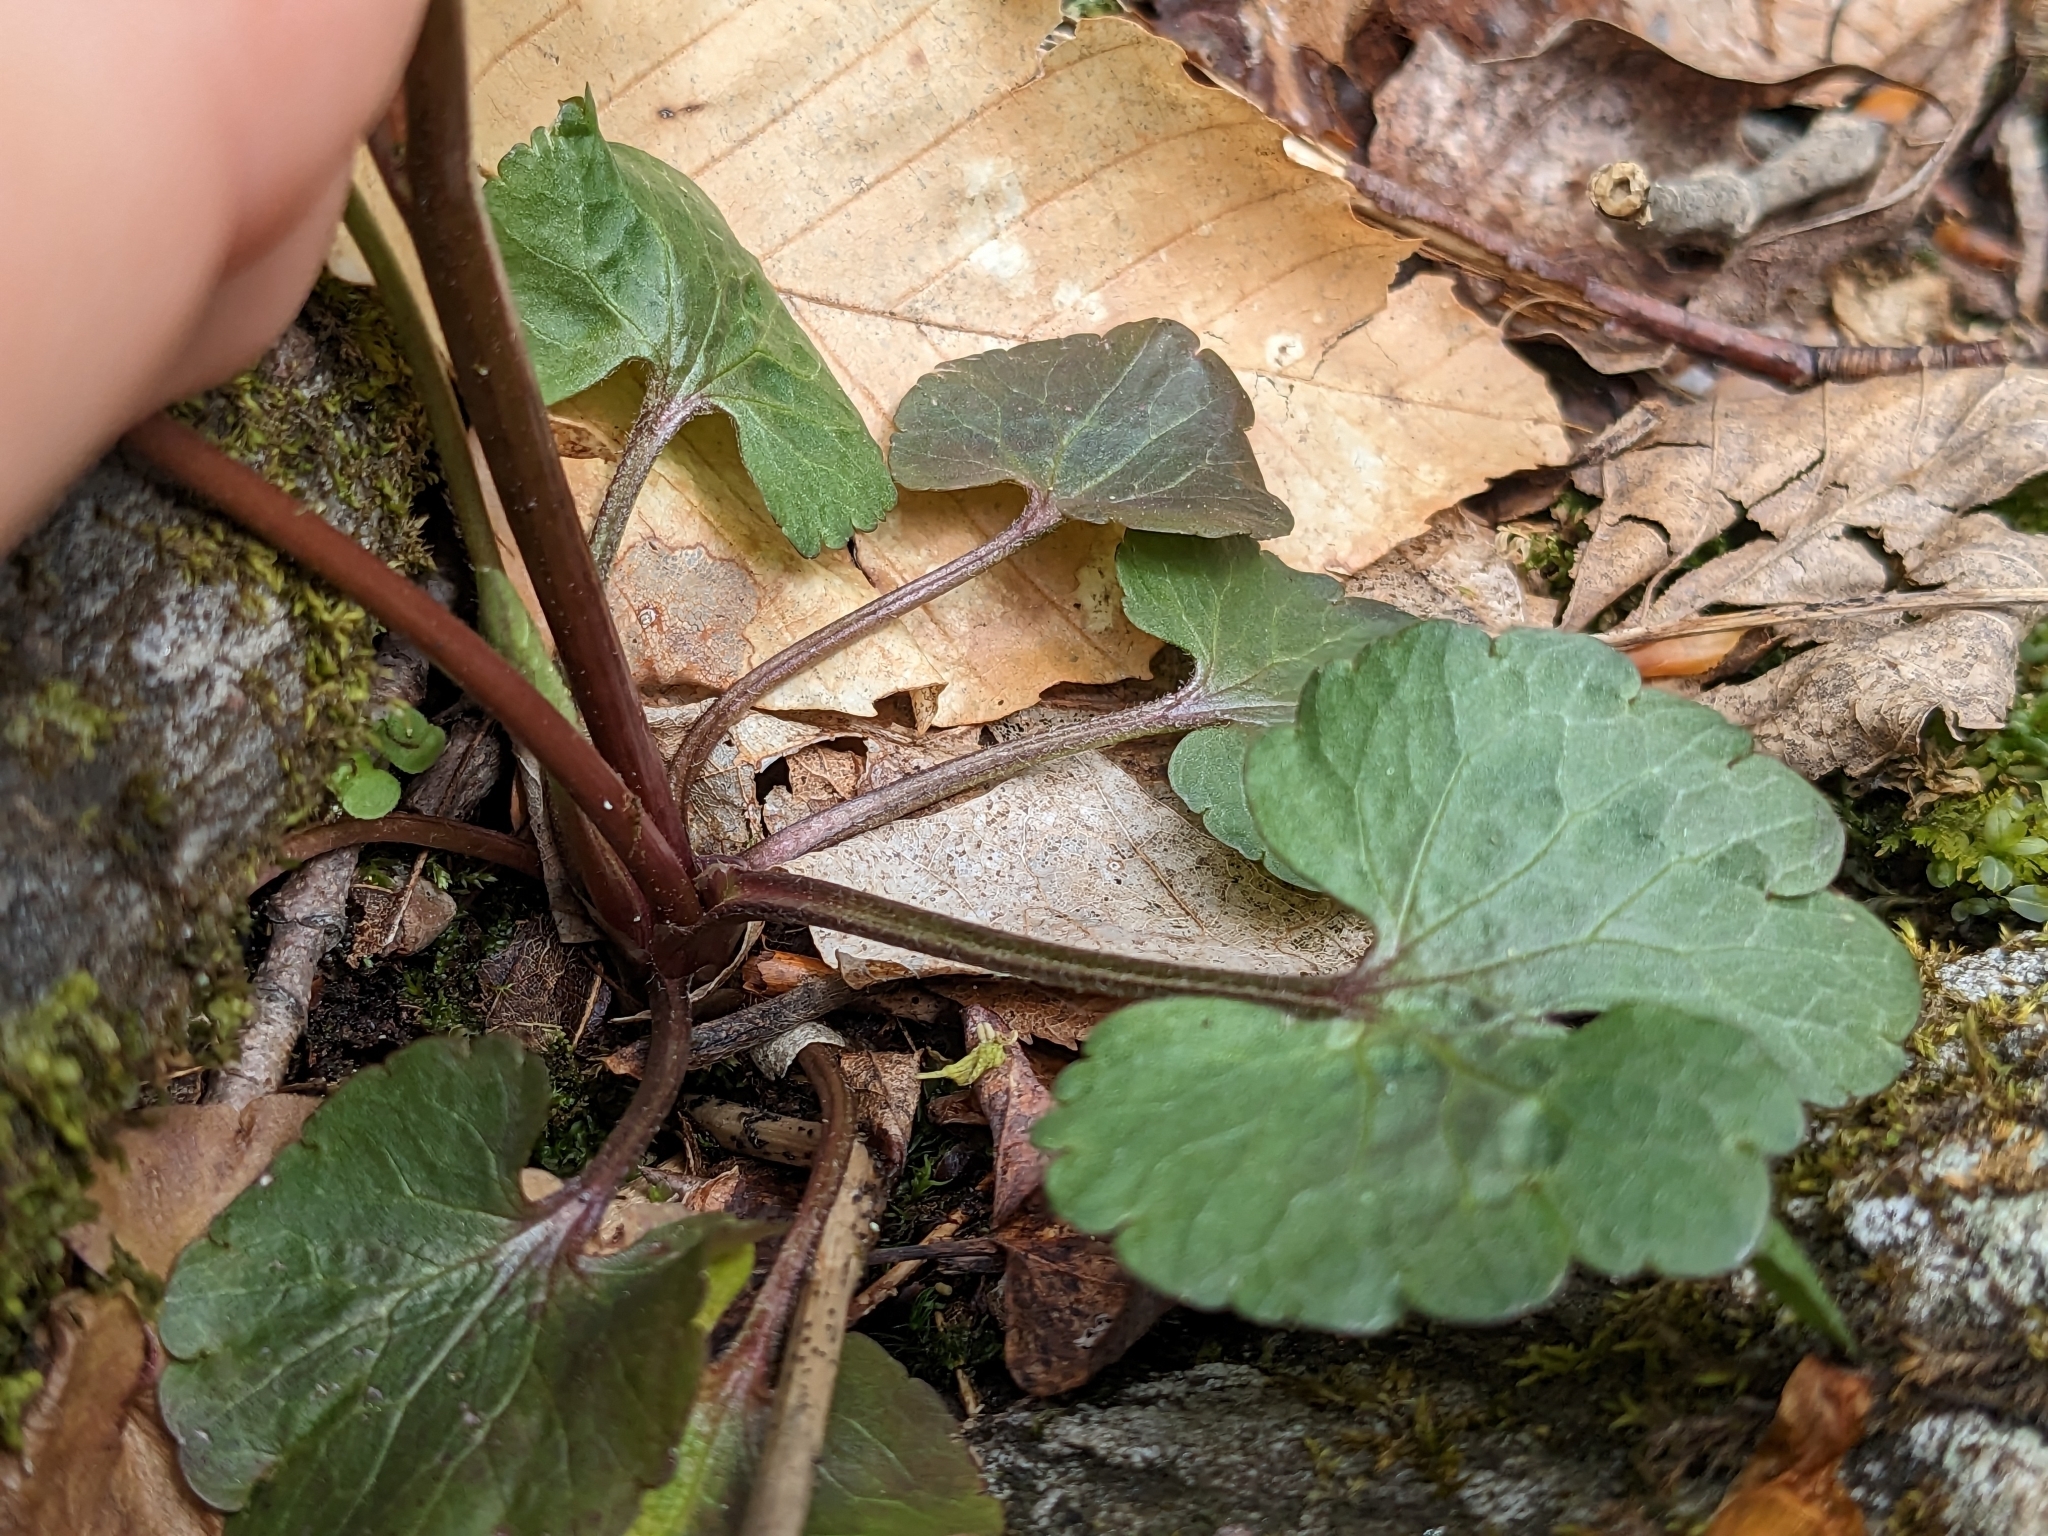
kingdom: Plantae
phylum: Tracheophyta
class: Magnoliopsida
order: Ranunculales
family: Ranunculaceae
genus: Ranunculus
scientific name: Ranunculus abortivus
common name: Early wood buttercup
